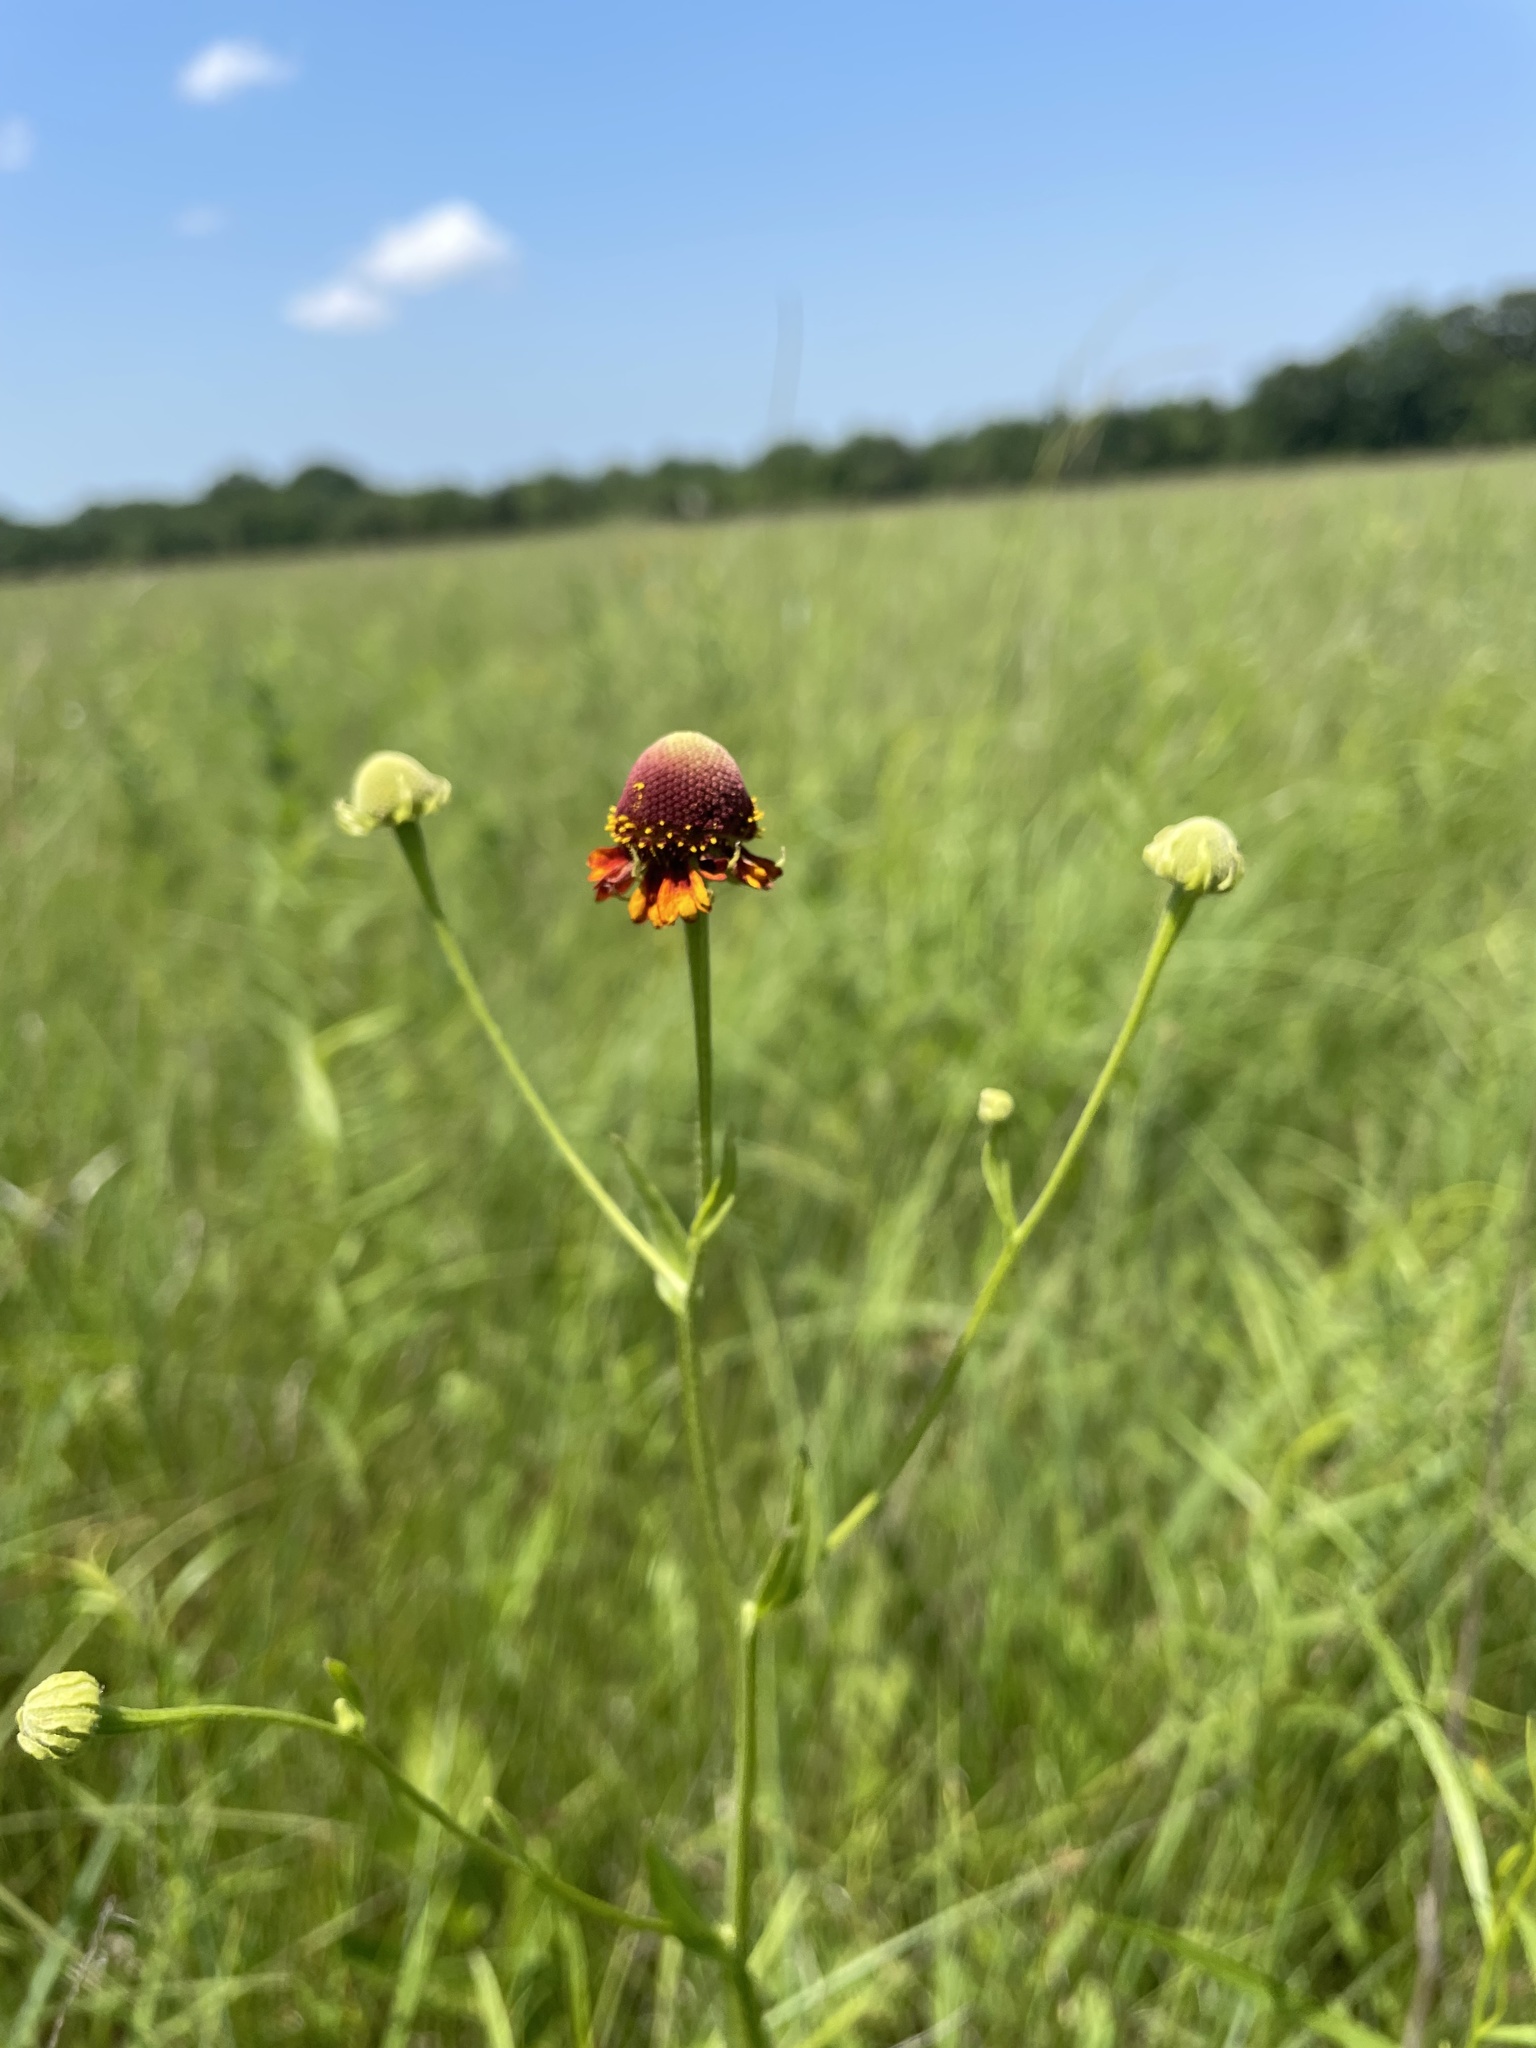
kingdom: Plantae
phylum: Tracheophyta
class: Magnoliopsida
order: Asterales
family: Asteraceae
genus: Helenium
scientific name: Helenium flexuosum
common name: Naked-flowered sneezeweed
